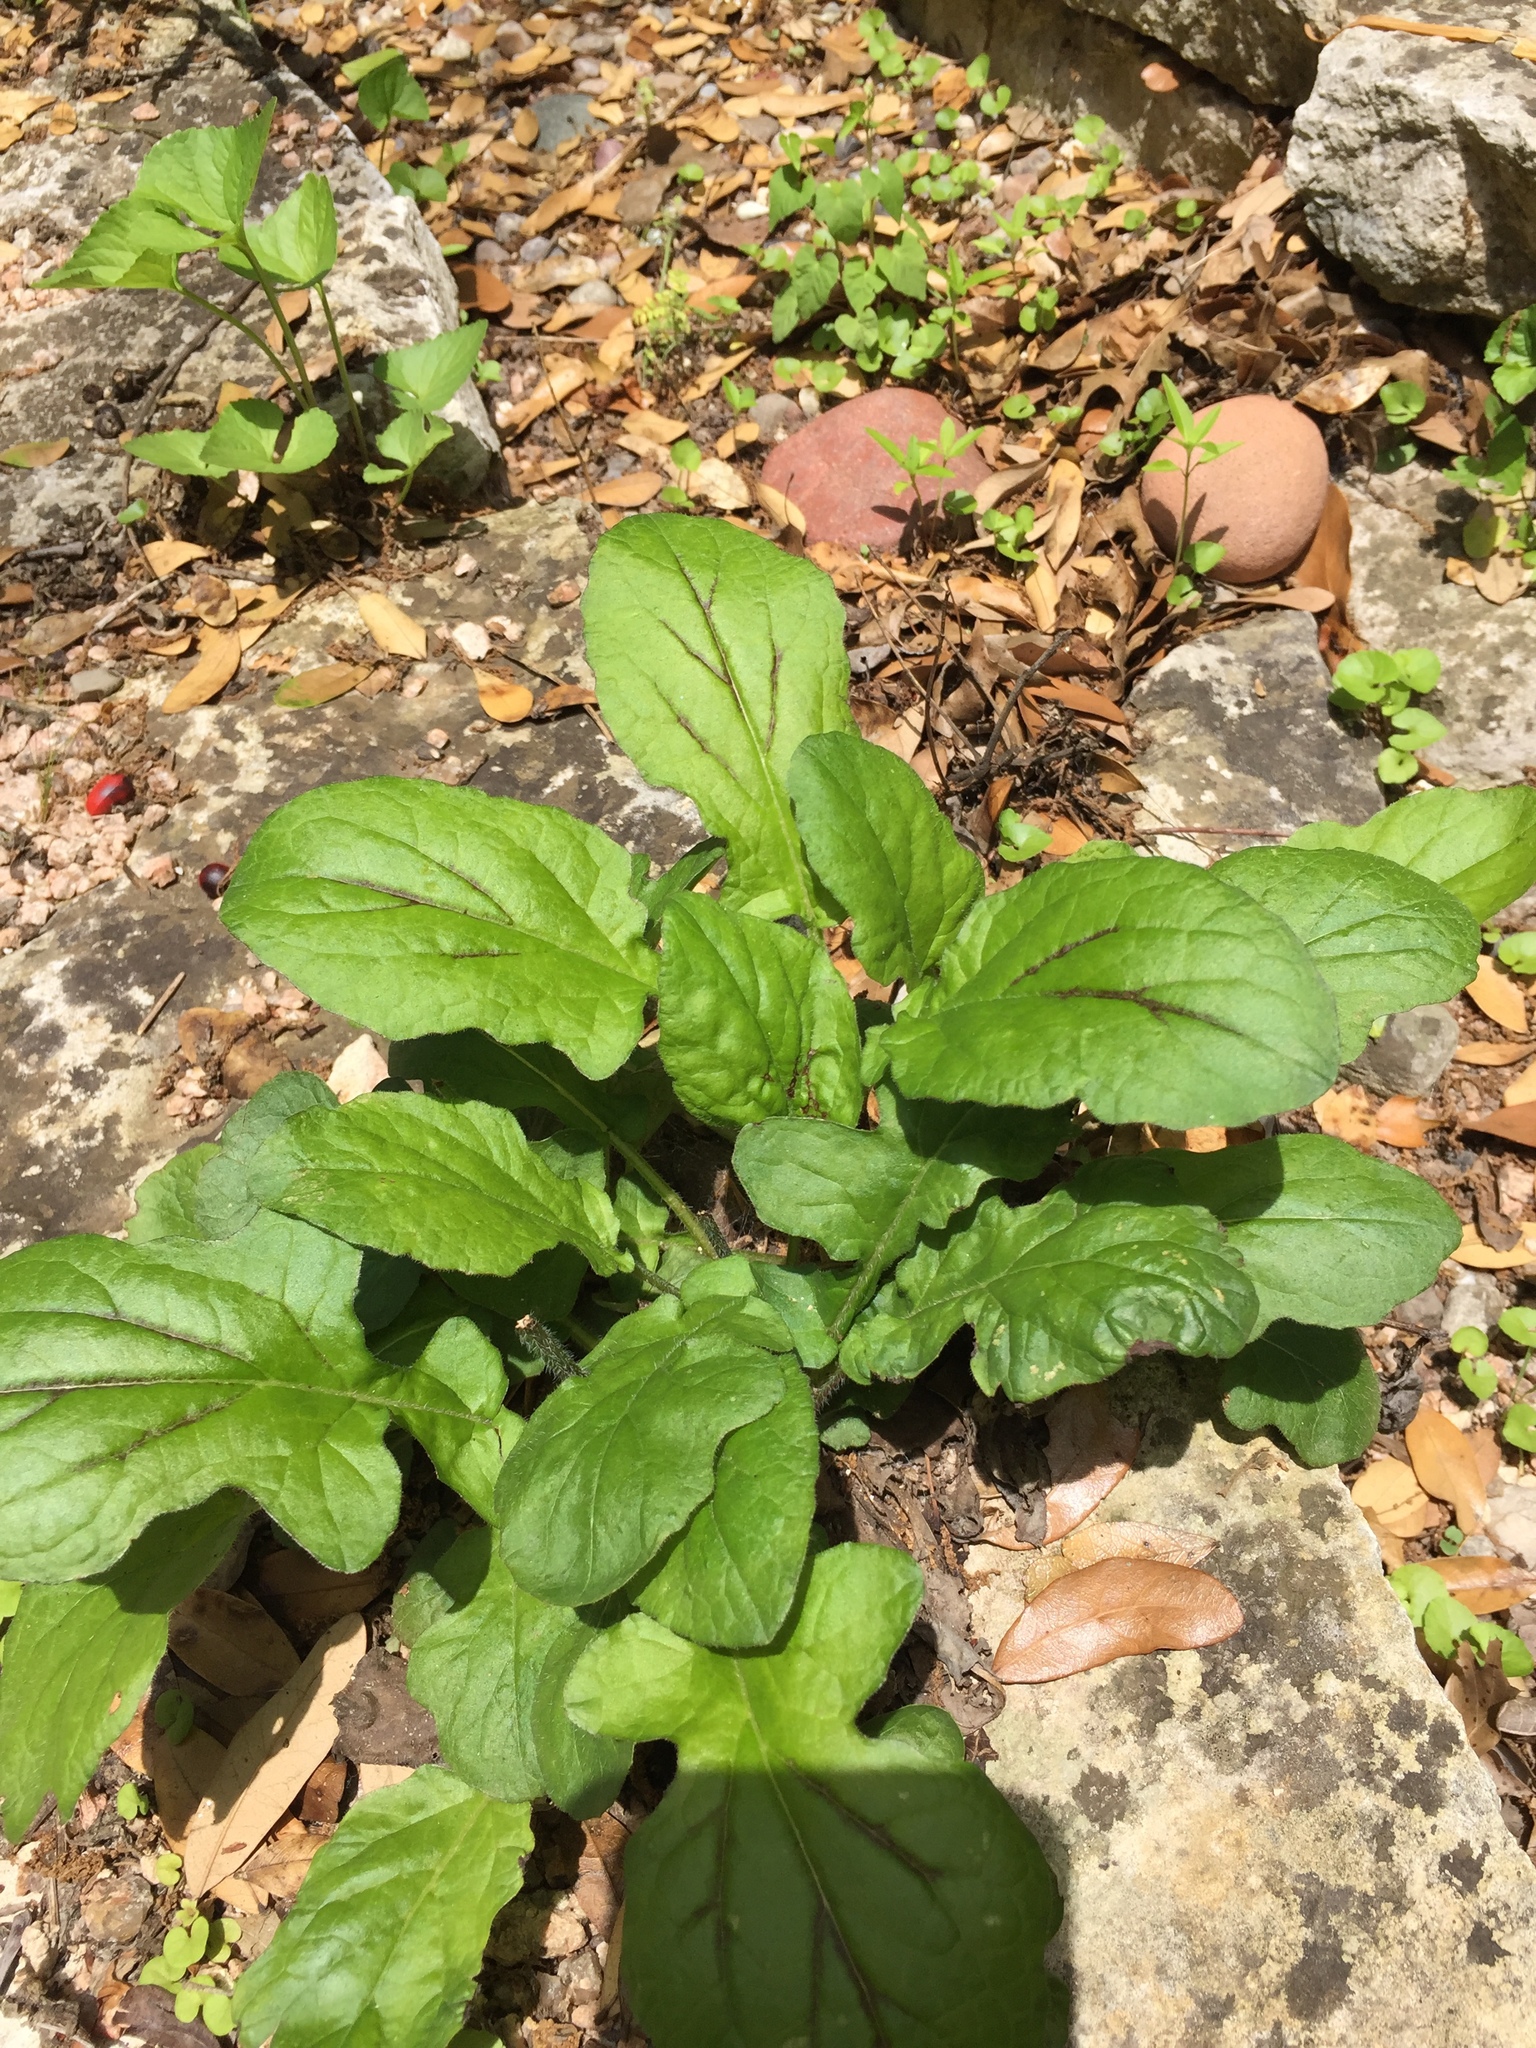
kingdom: Plantae
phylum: Tracheophyta
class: Magnoliopsida
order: Lamiales
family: Lamiaceae
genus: Salvia
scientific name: Salvia lyrata
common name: Cancerweed
